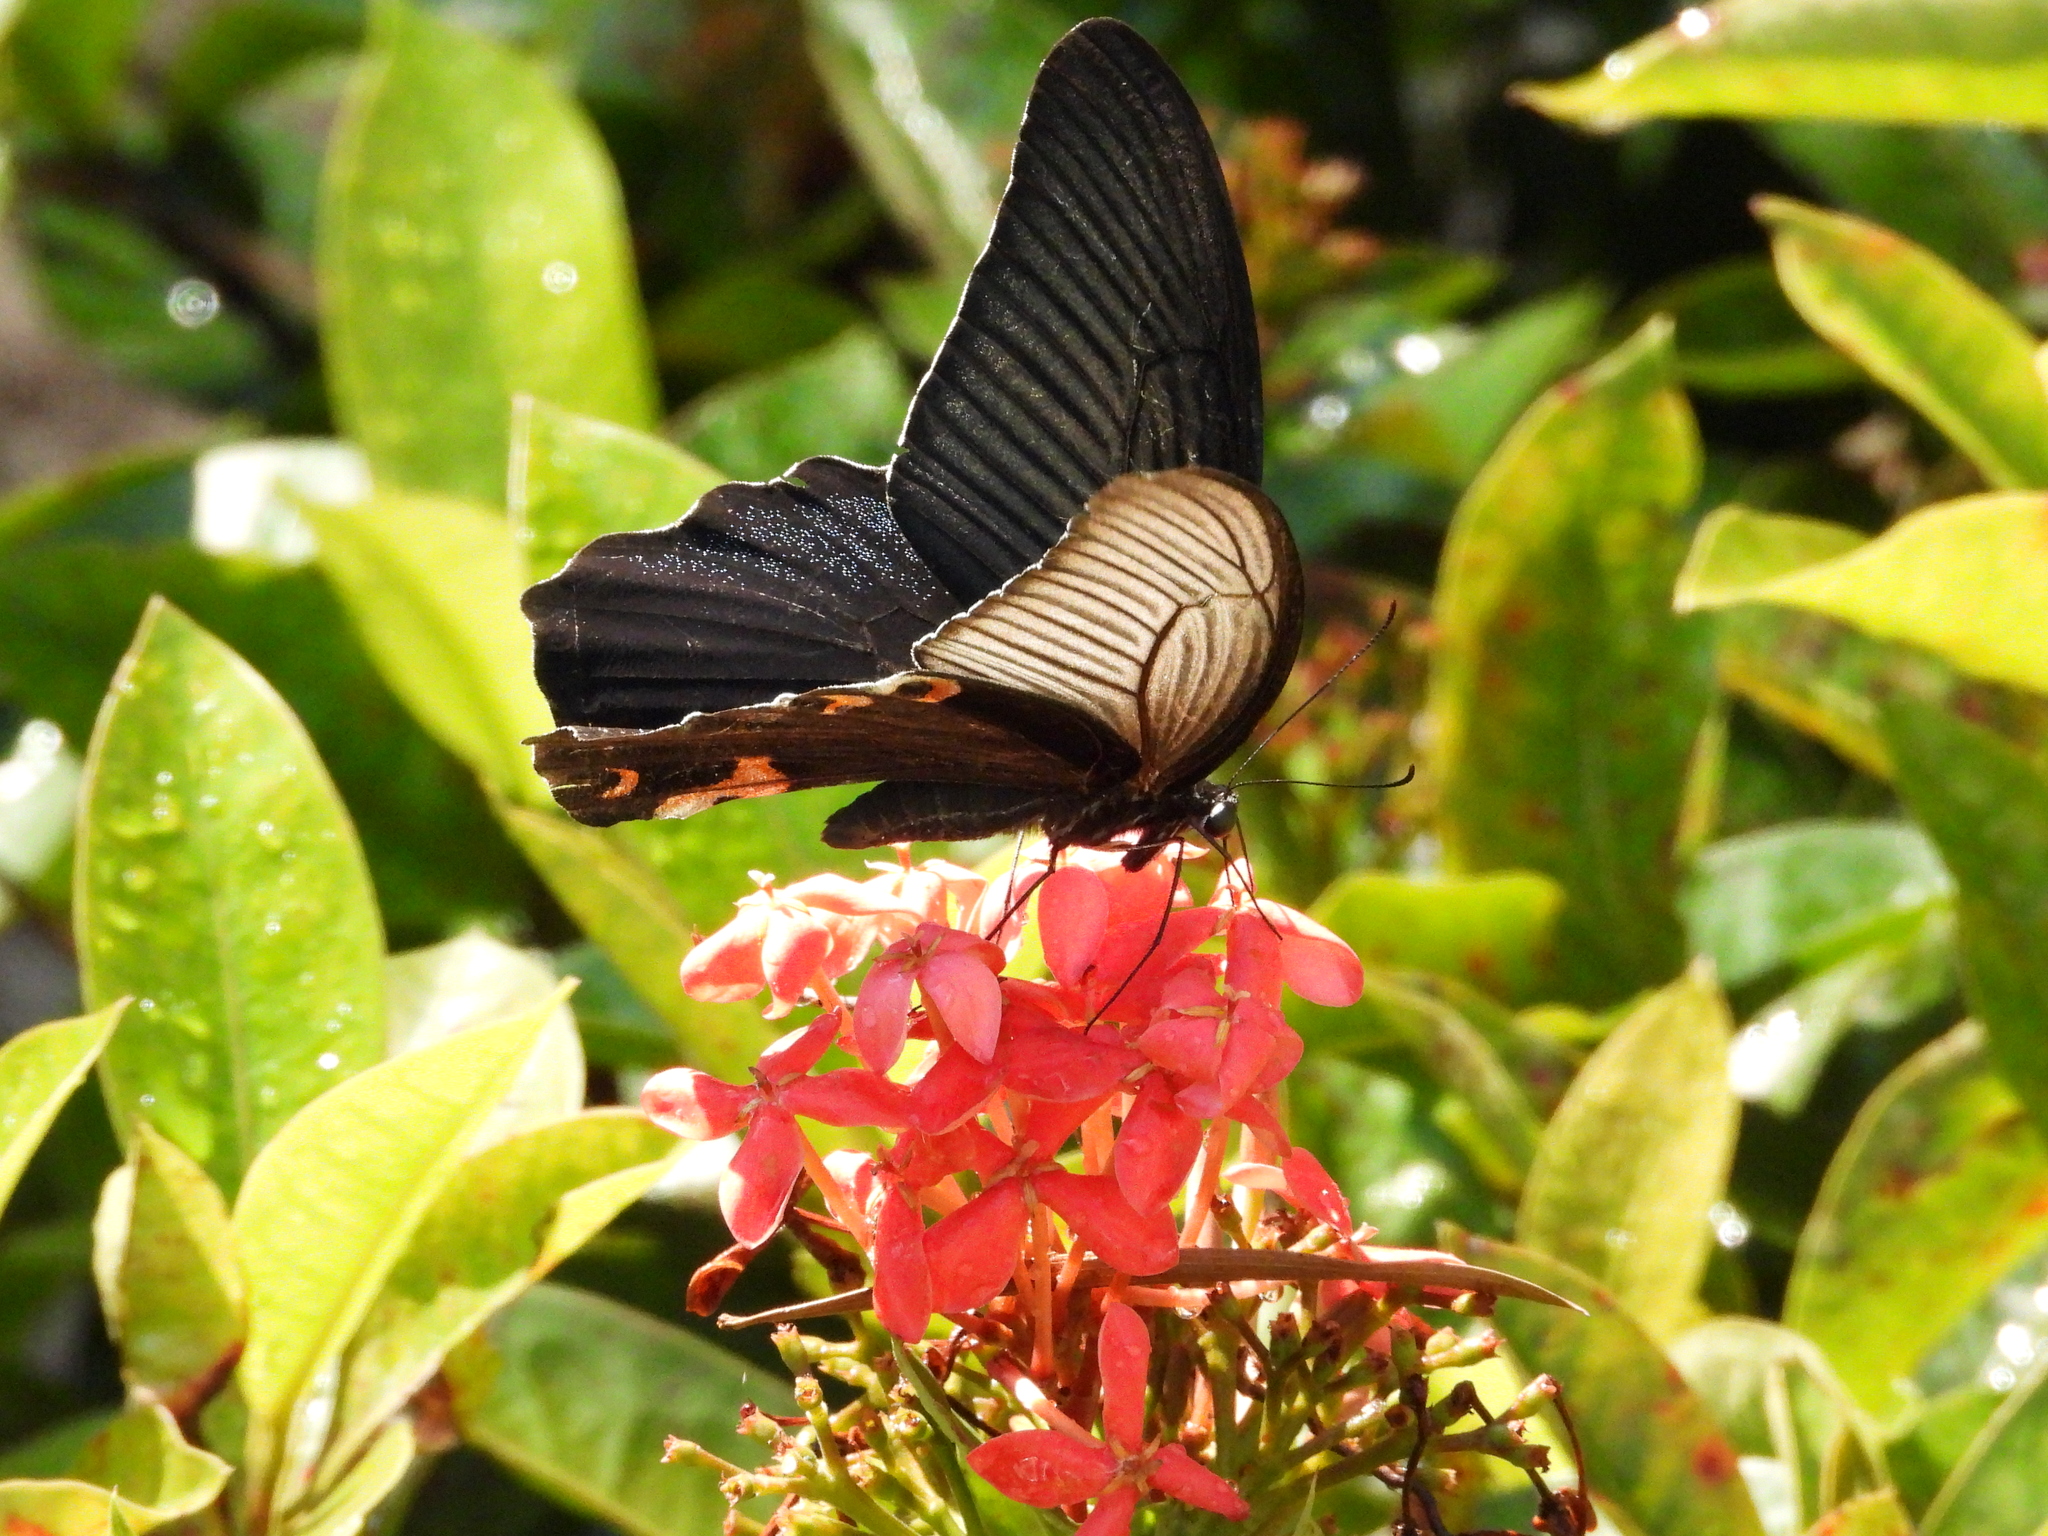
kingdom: Animalia
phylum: Arthropoda
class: Insecta
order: Lepidoptera
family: Papilionidae
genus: Papilio
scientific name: Papilio protenor
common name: Spangle
